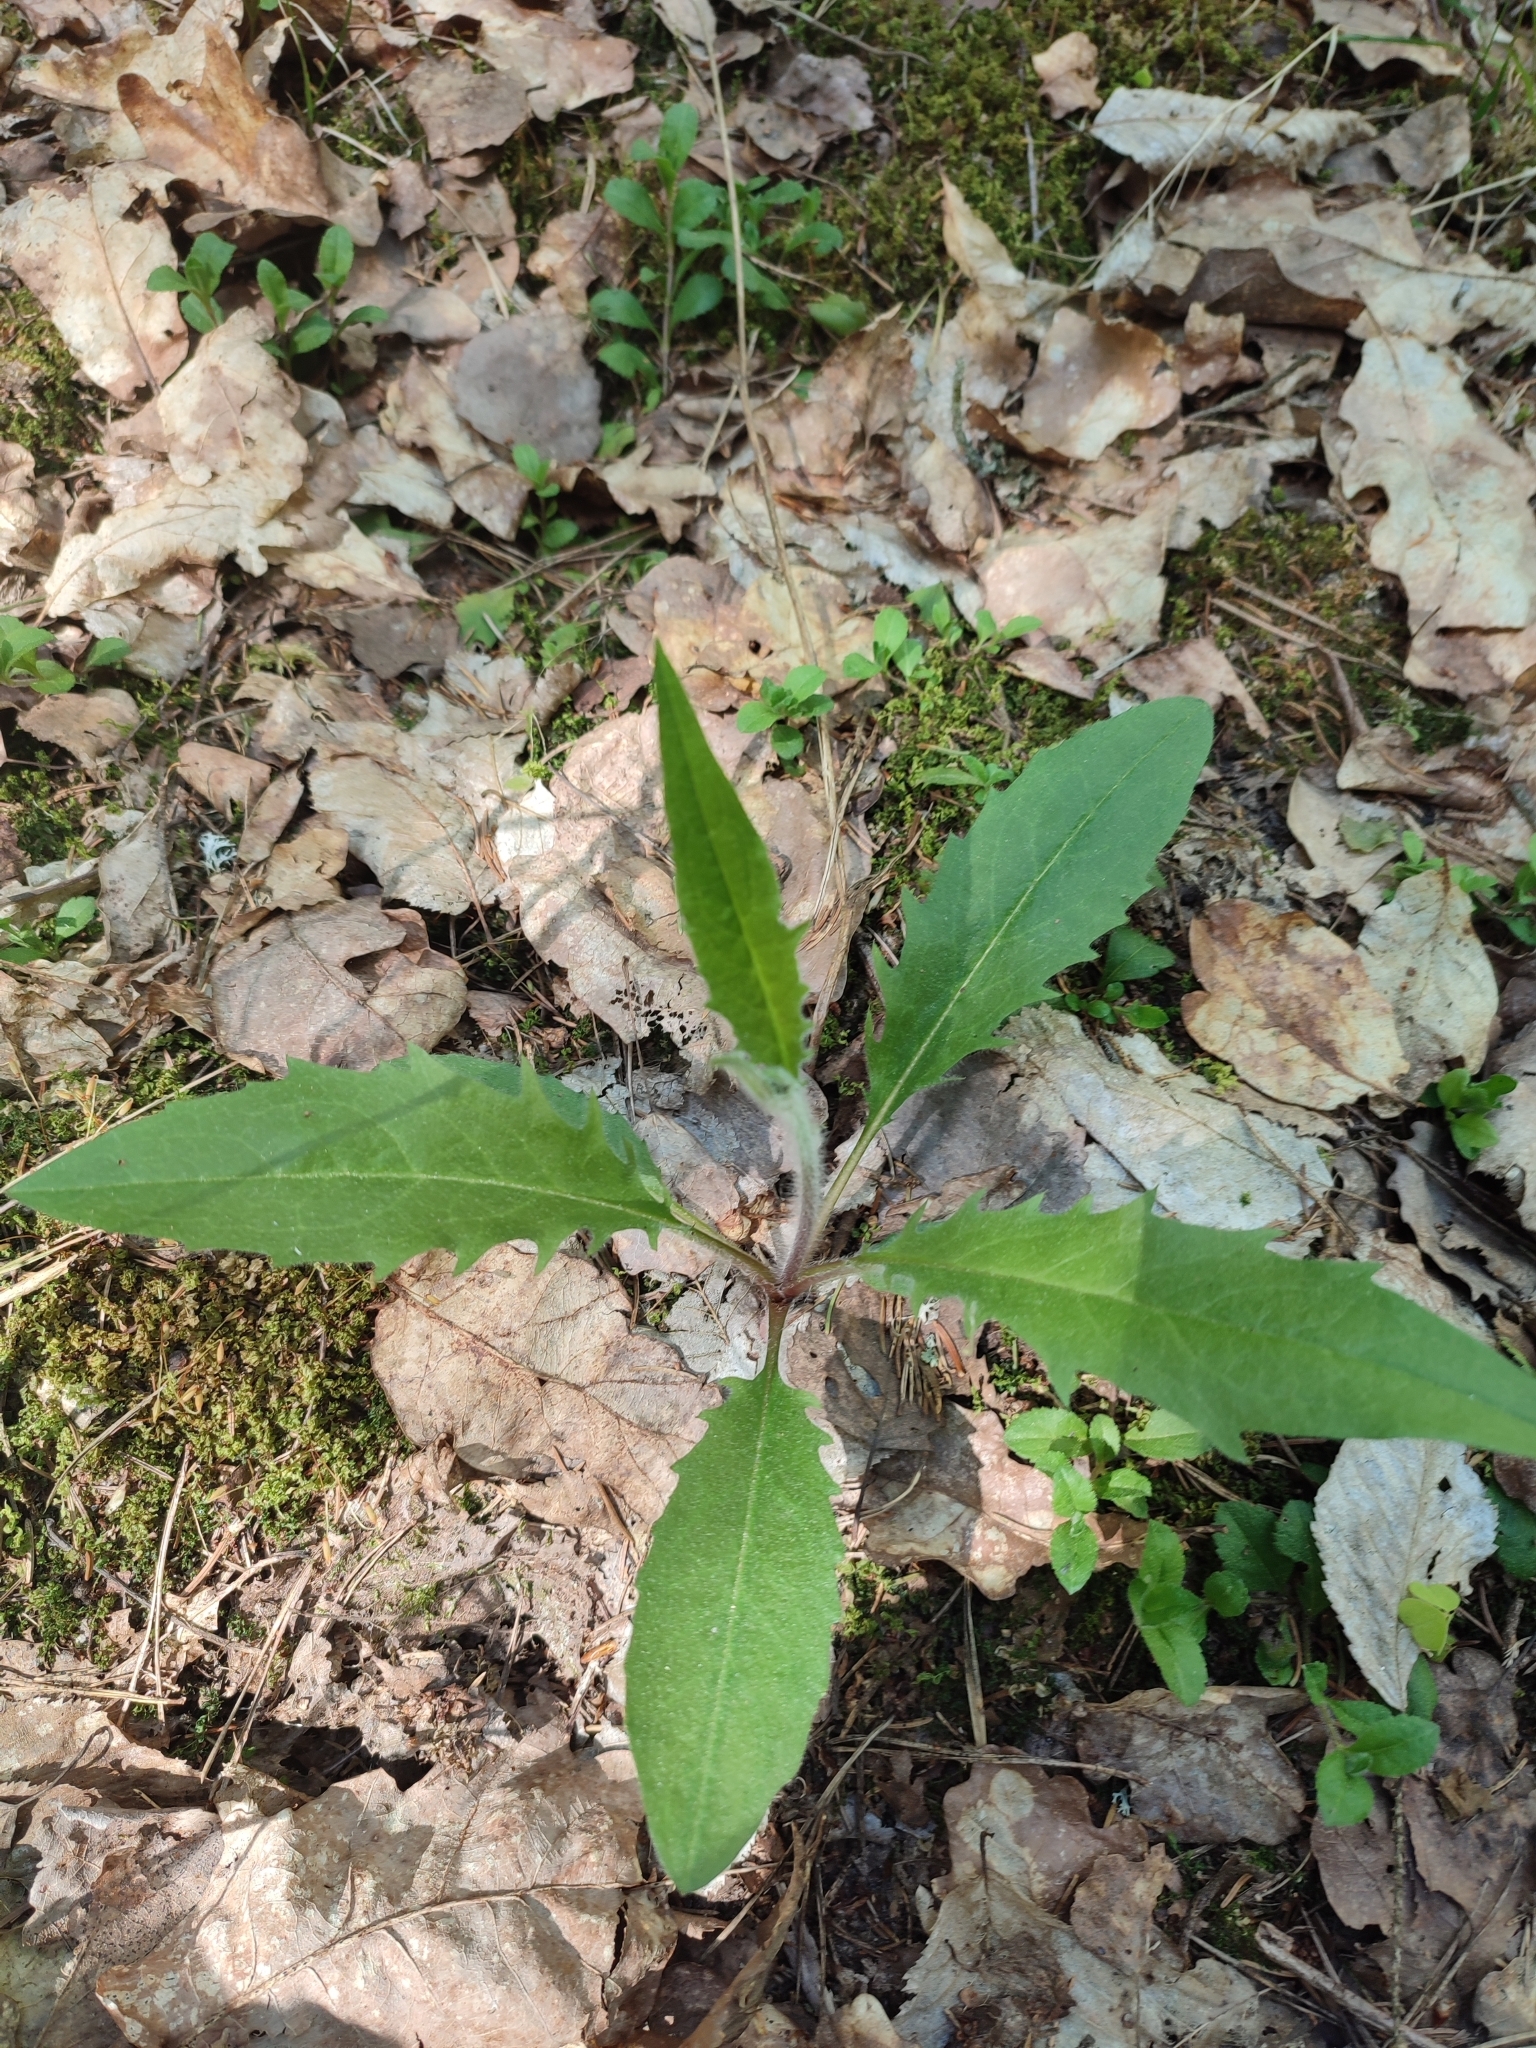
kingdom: Plantae
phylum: Tracheophyta
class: Magnoliopsida
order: Asterales
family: Asteraceae
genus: Hieracium
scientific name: Hieracium lachenalii
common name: Common hawkweed
